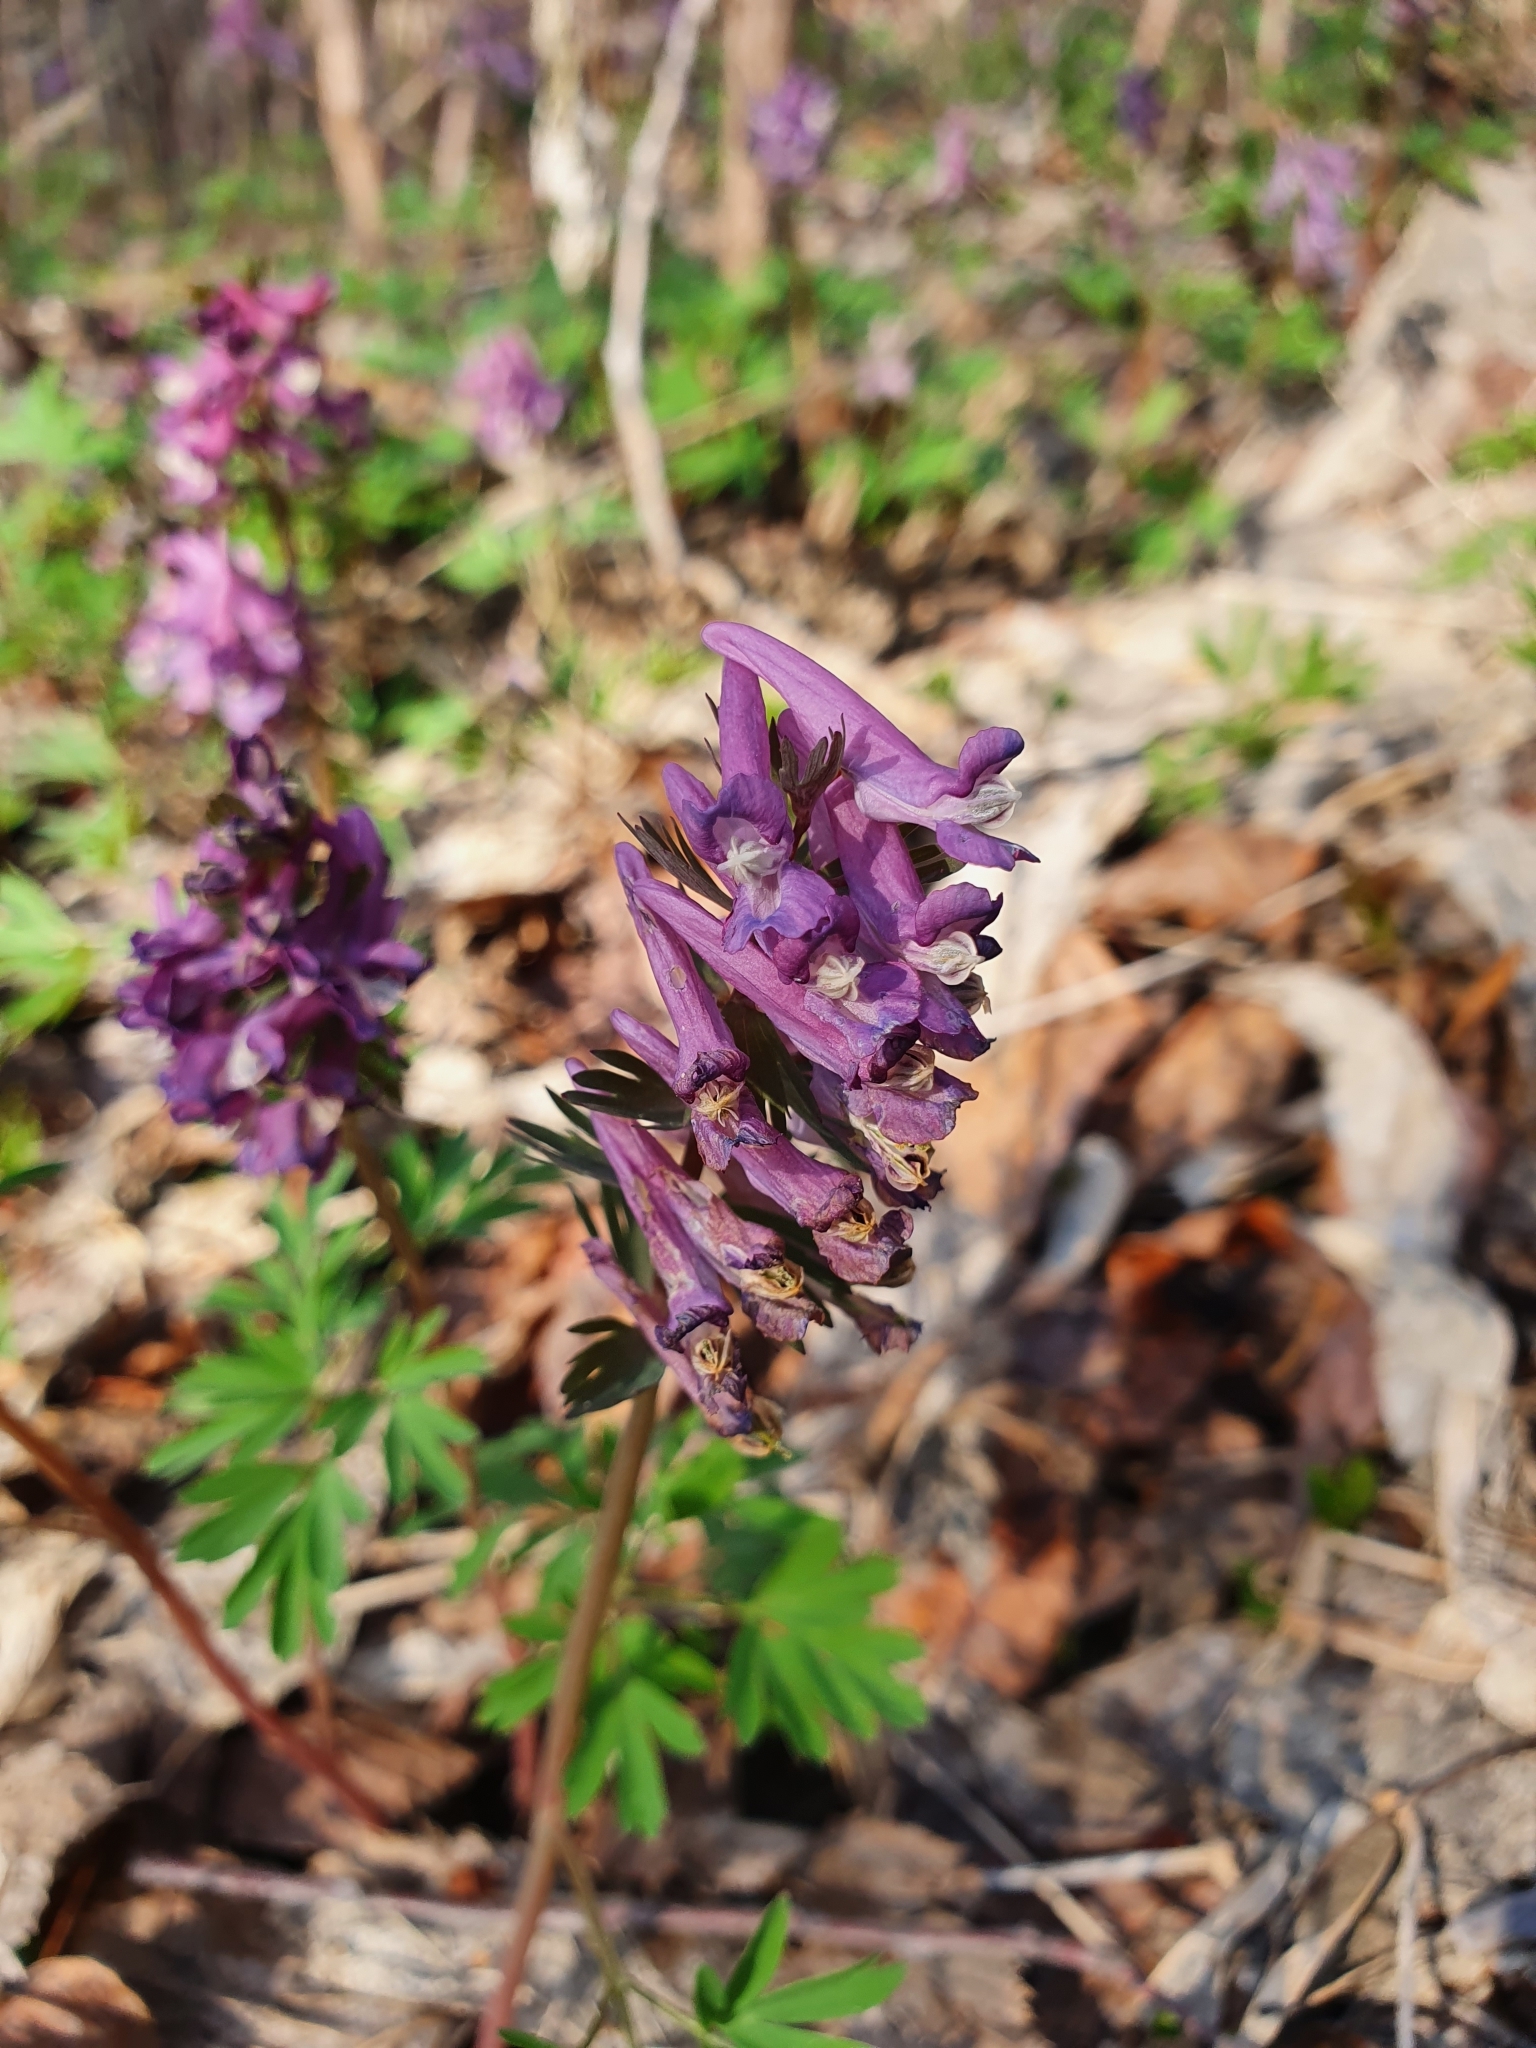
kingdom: Plantae
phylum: Tracheophyta
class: Magnoliopsida
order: Ranunculales
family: Papaveraceae
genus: Corydalis
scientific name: Corydalis solida
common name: Bird-in-a-bush
